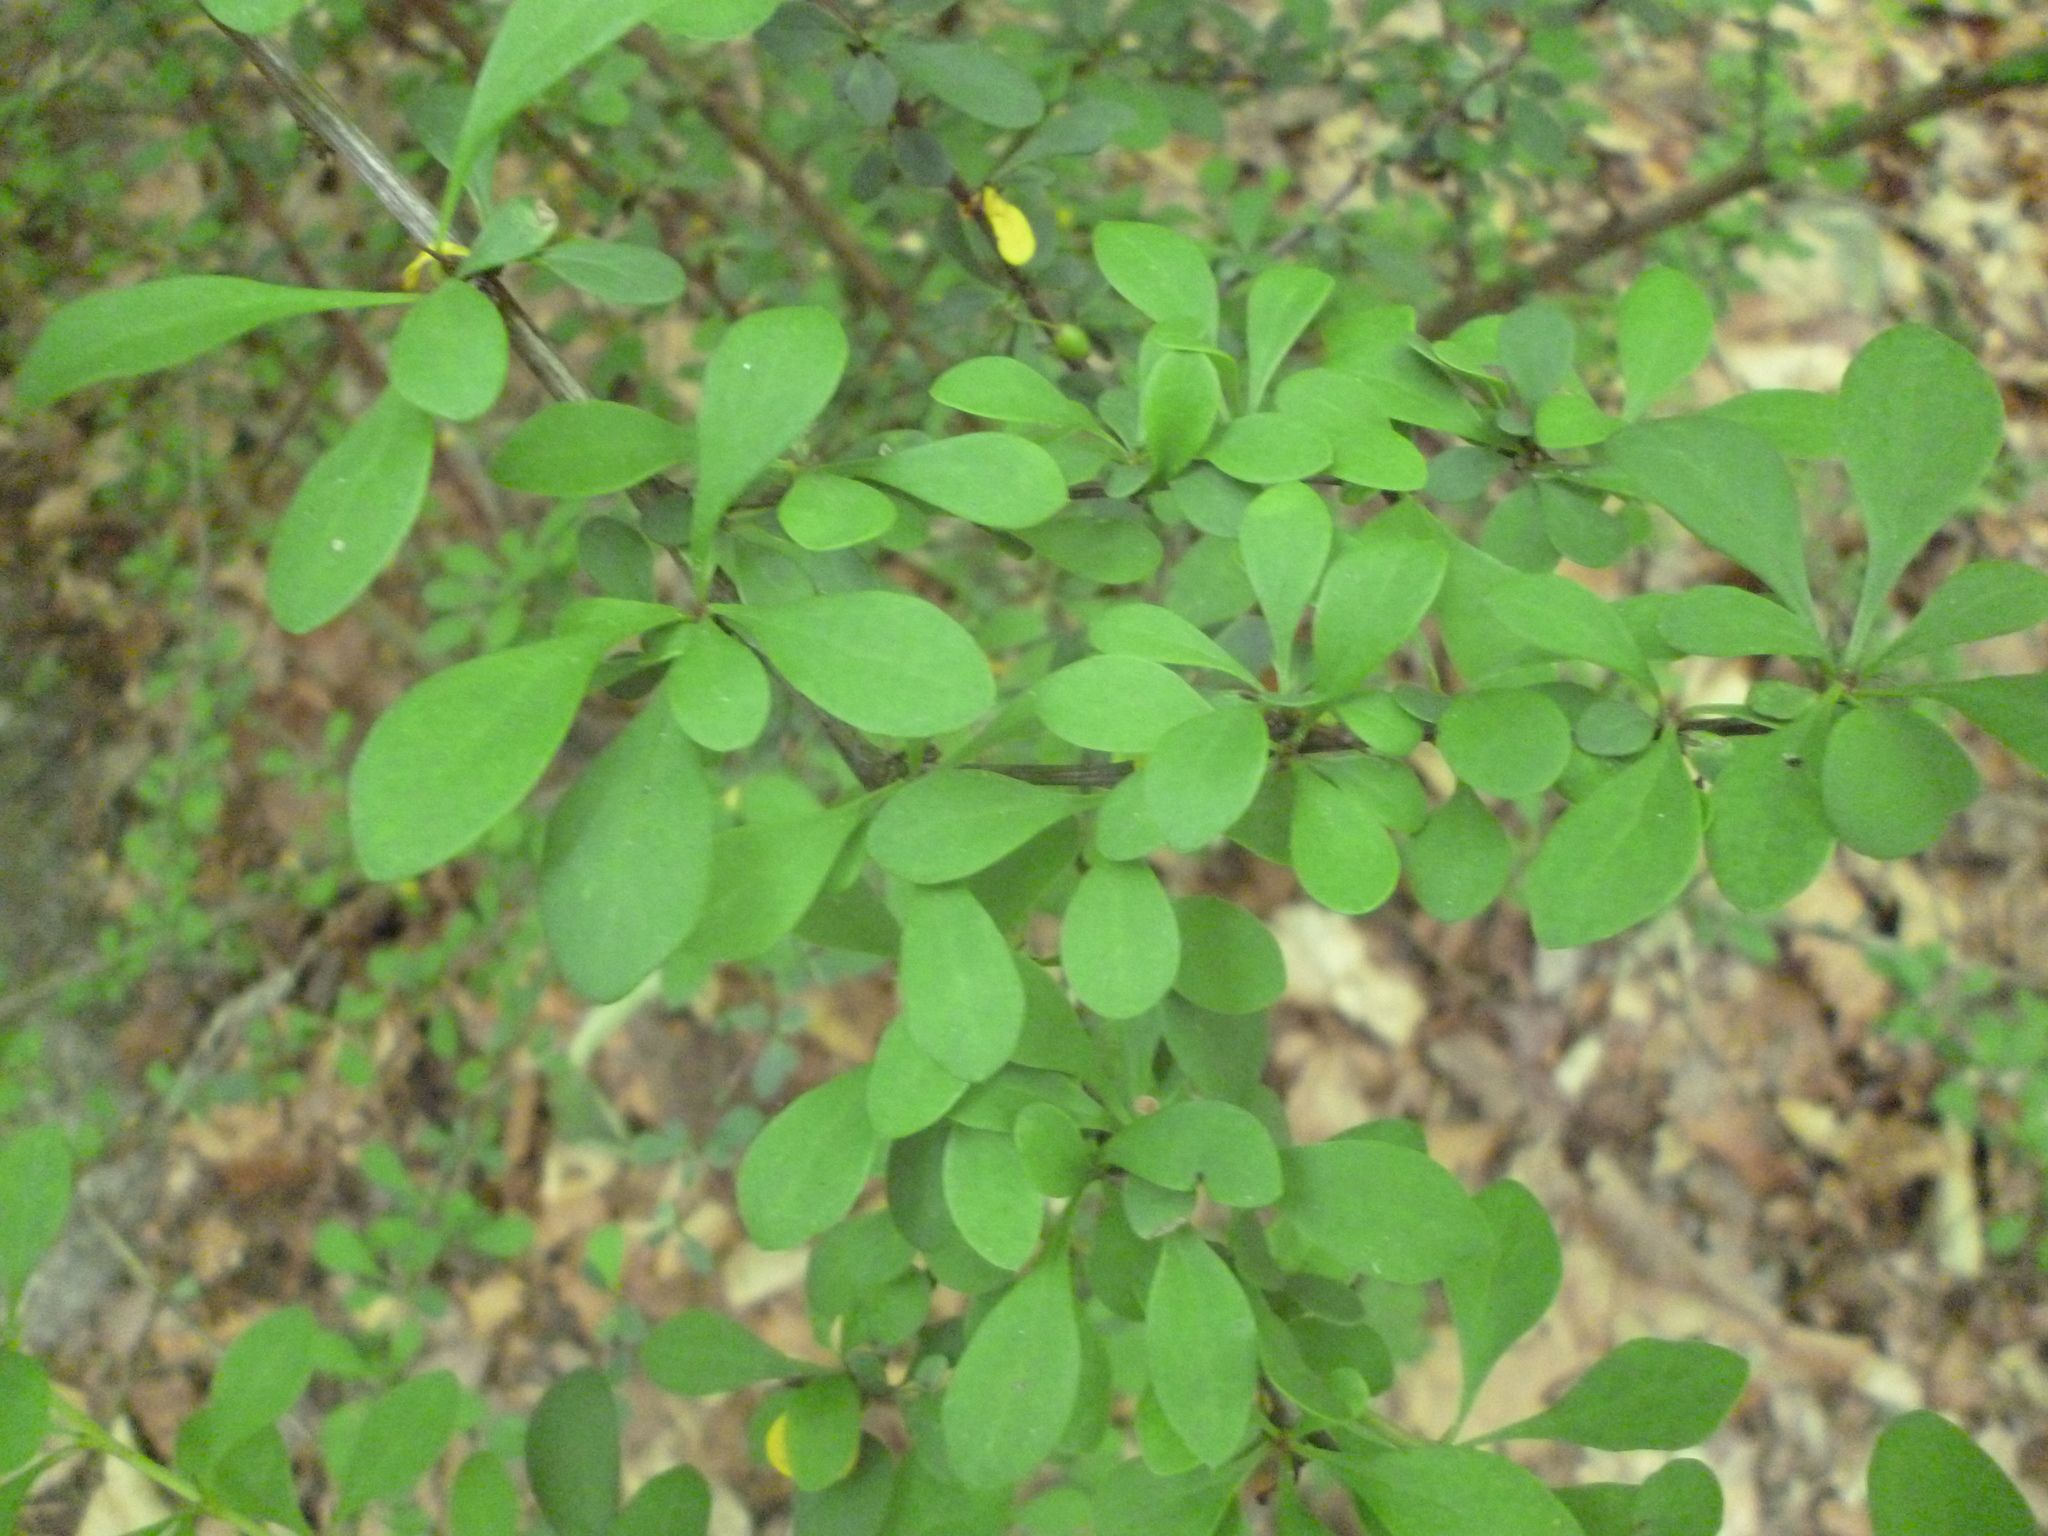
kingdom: Plantae
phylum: Tracheophyta
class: Magnoliopsida
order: Ranunculales
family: Berberidaceae
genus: Berberis
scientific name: Berberis thunbergii
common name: Japanese barberry
